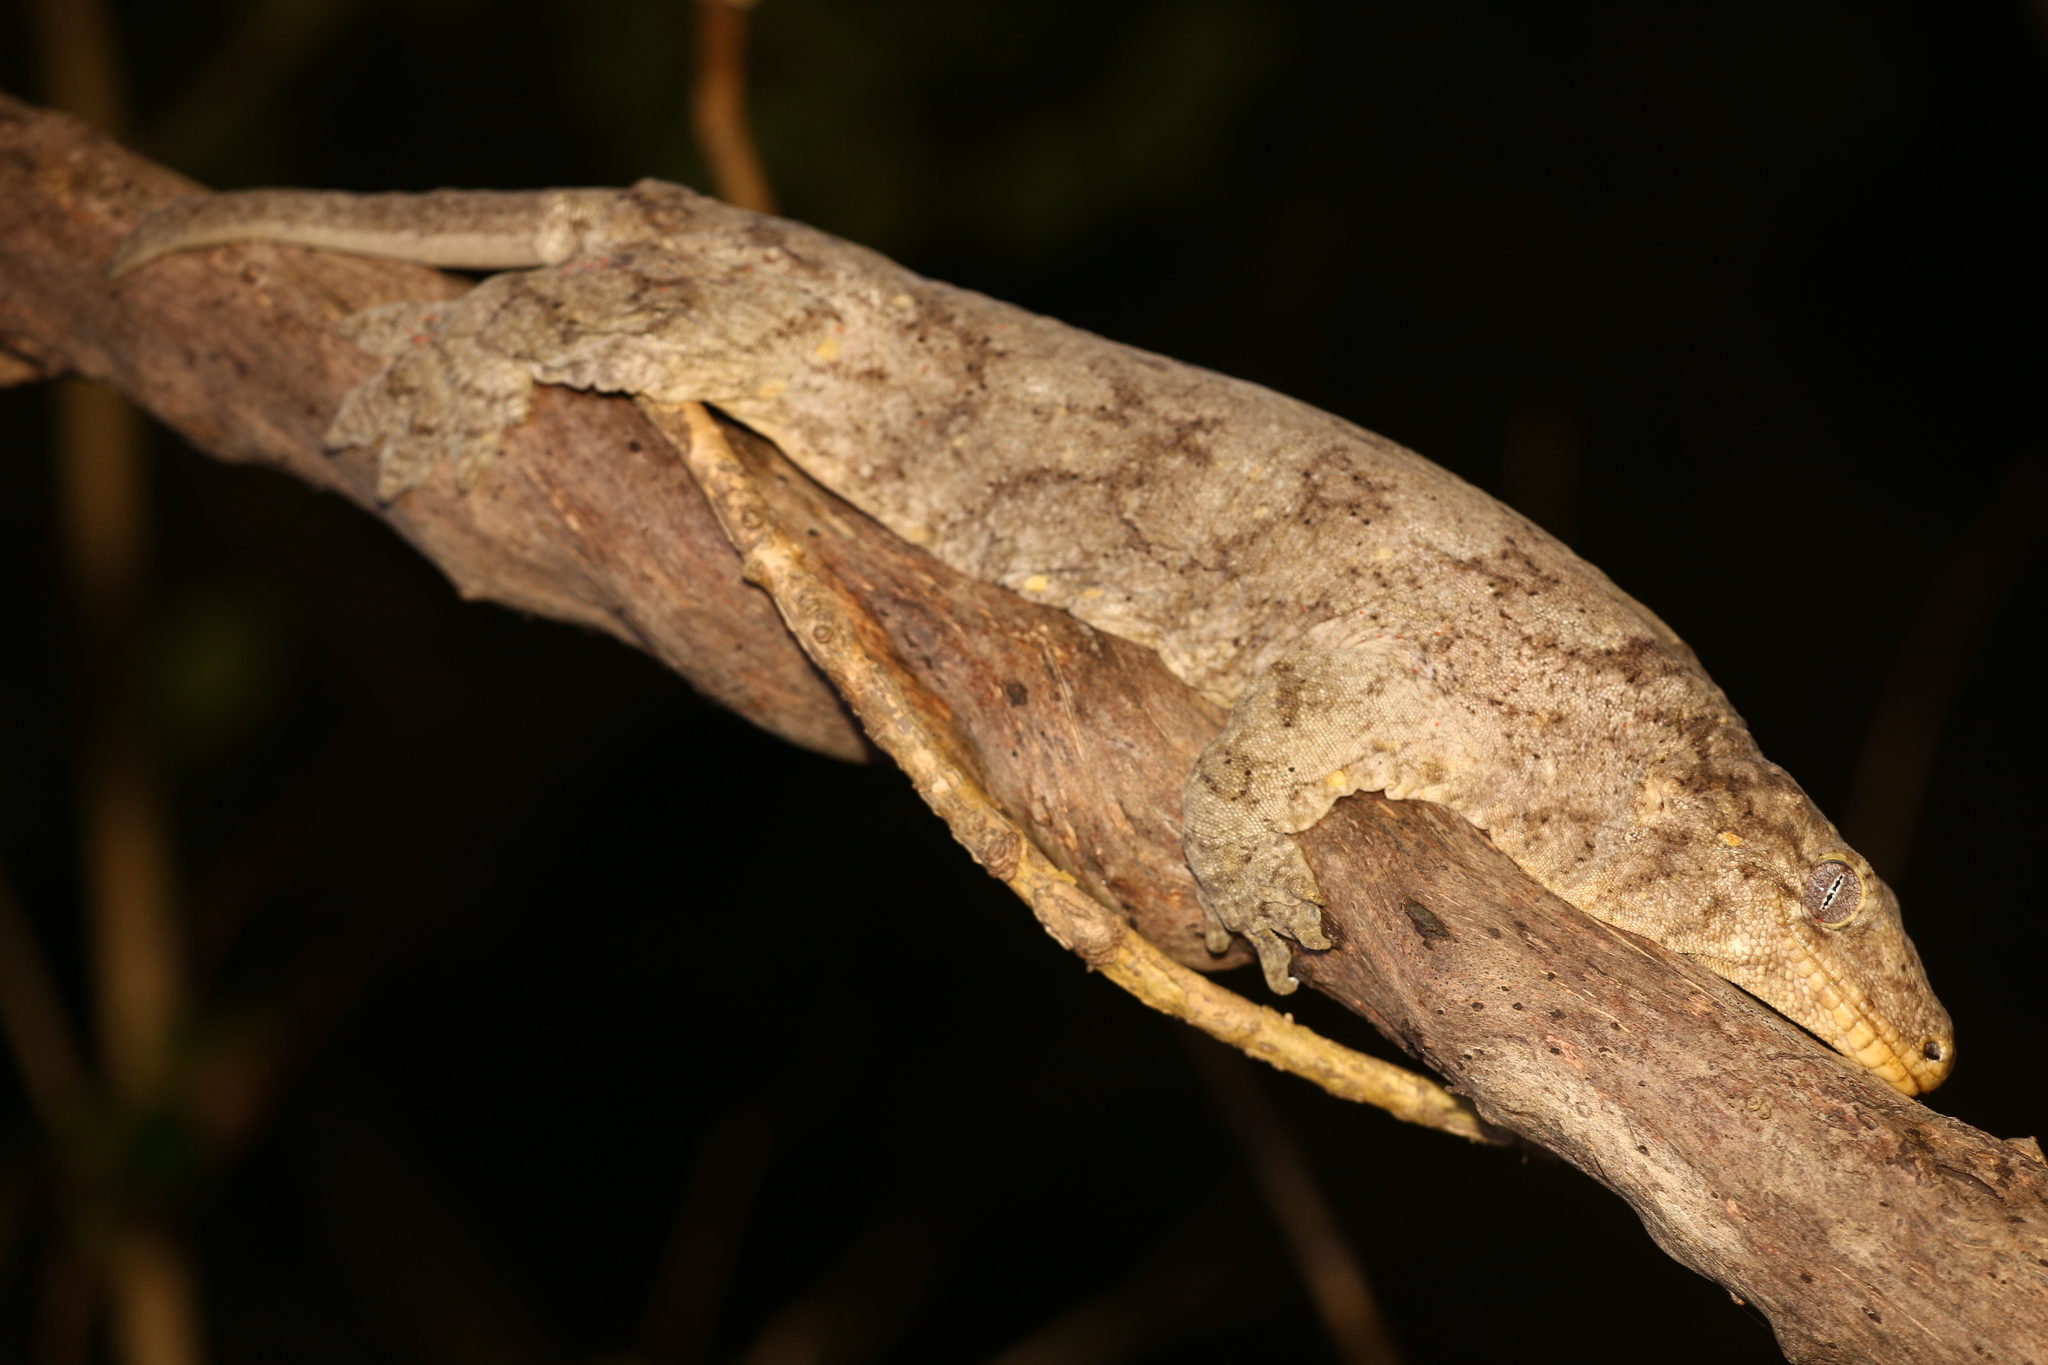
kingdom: Animalia
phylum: Chordata
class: Squamata
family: Diplodactylidae
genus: Rhacodactylus
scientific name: Rhacodactylus leachianus
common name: New caledonia giant gecko
